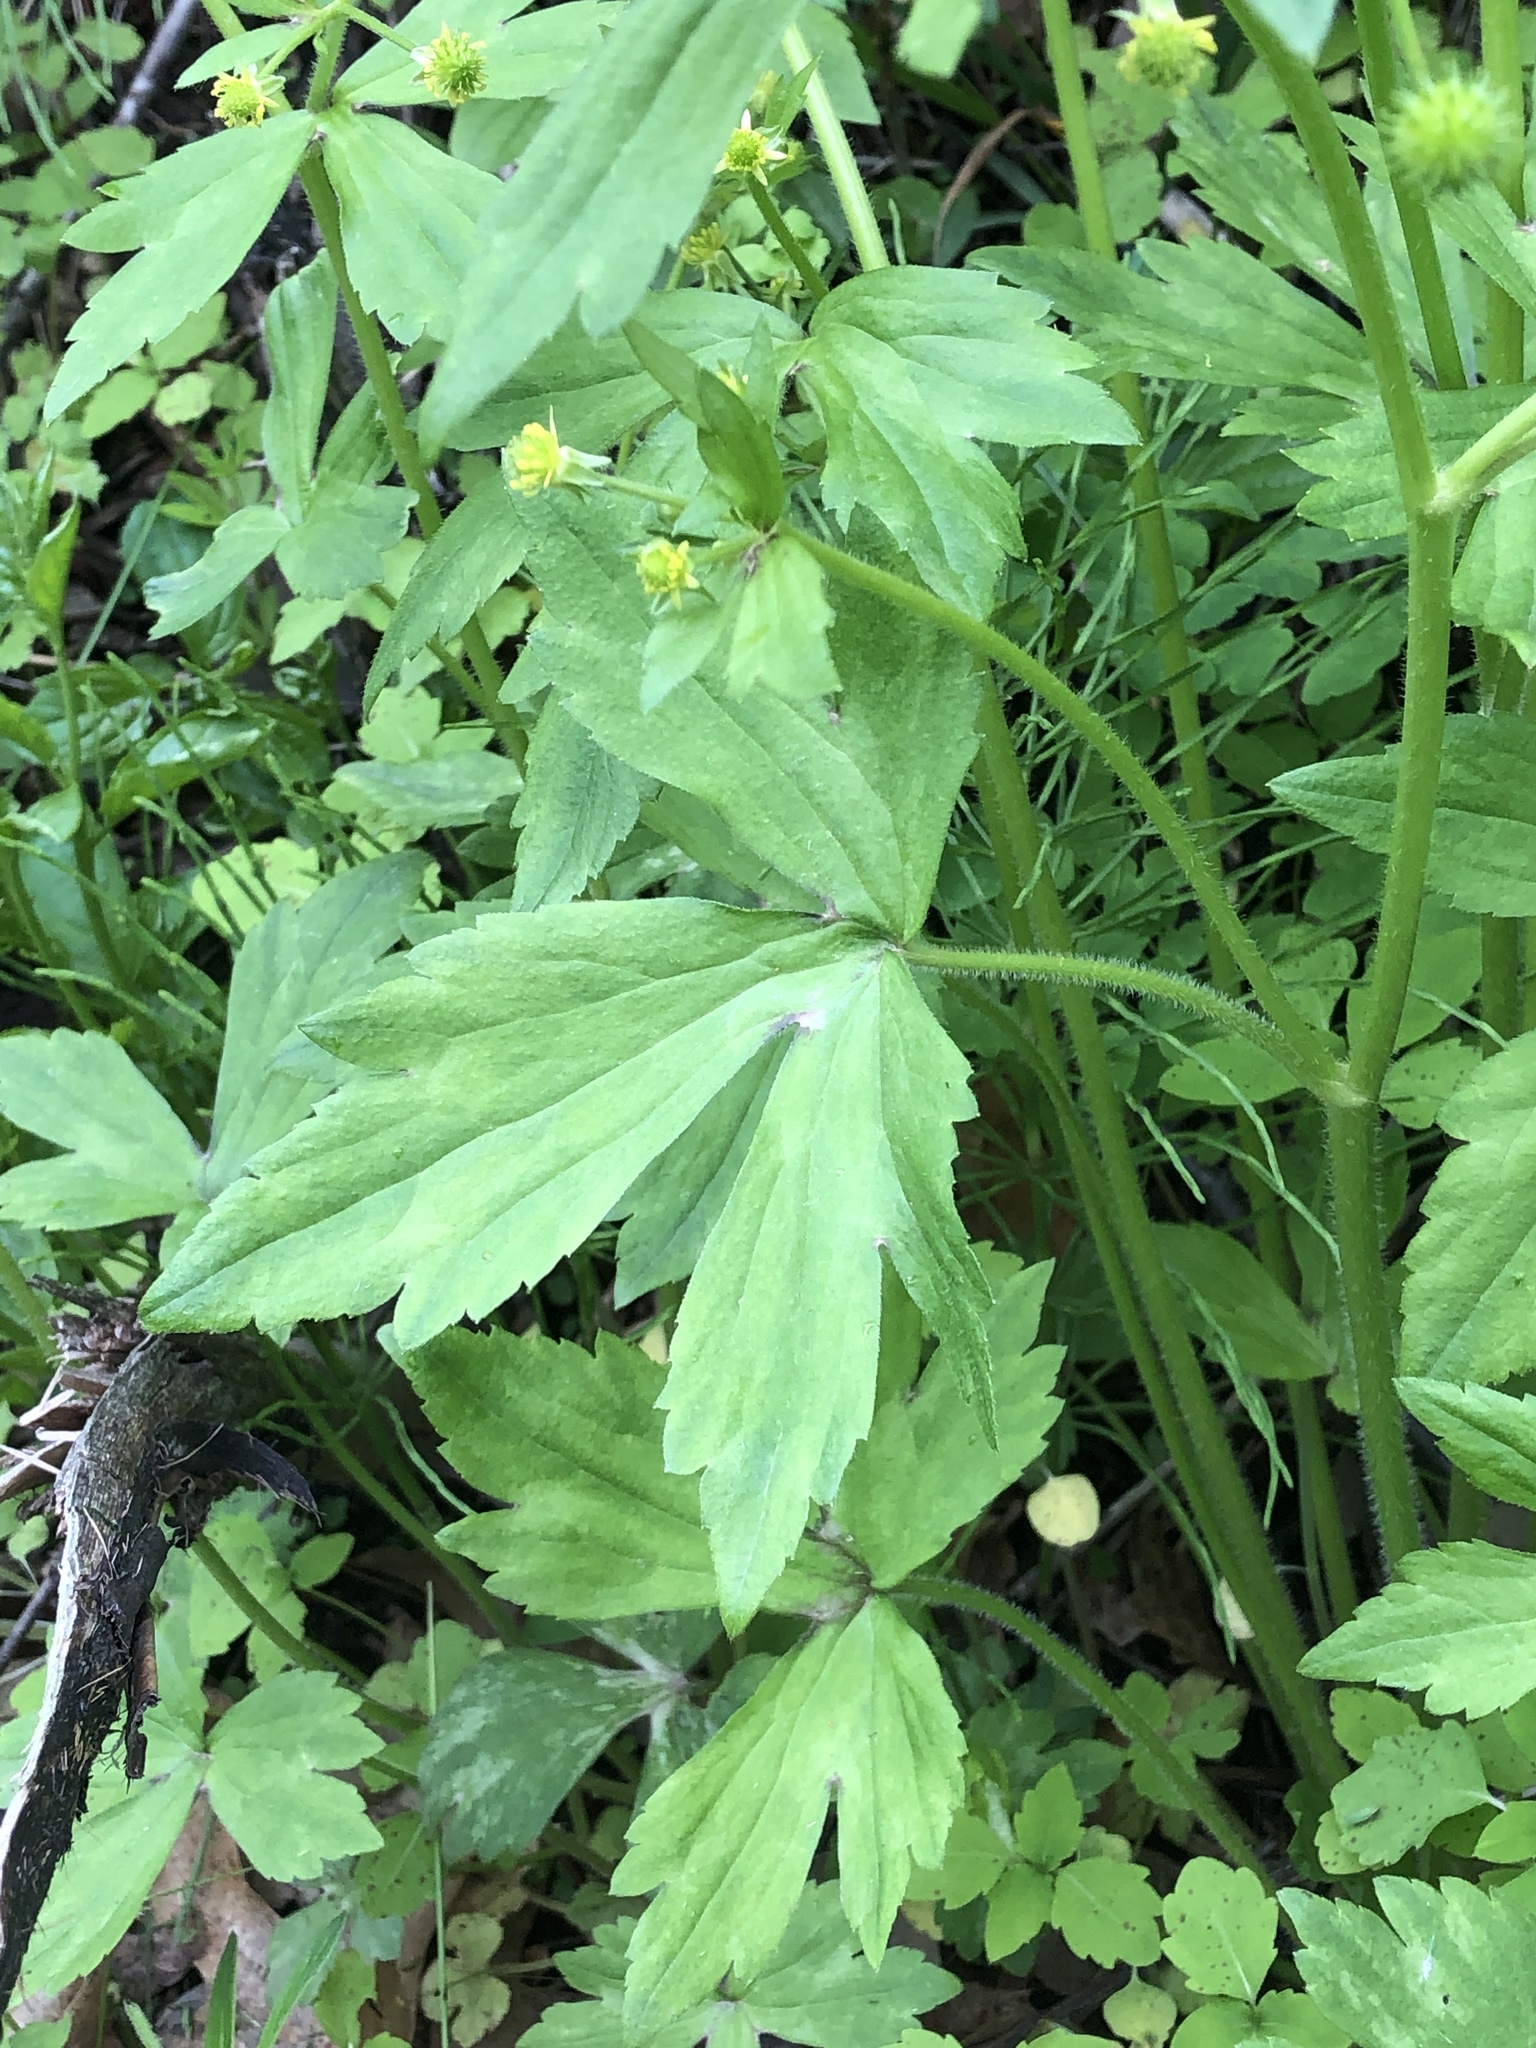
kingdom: Plantae
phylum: Tracheophyta
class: Magnoliopsida
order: Ranunculales
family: Ranunculaceae
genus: Ranunculus
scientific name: Ranunculus recurvatus
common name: Blisterwort
